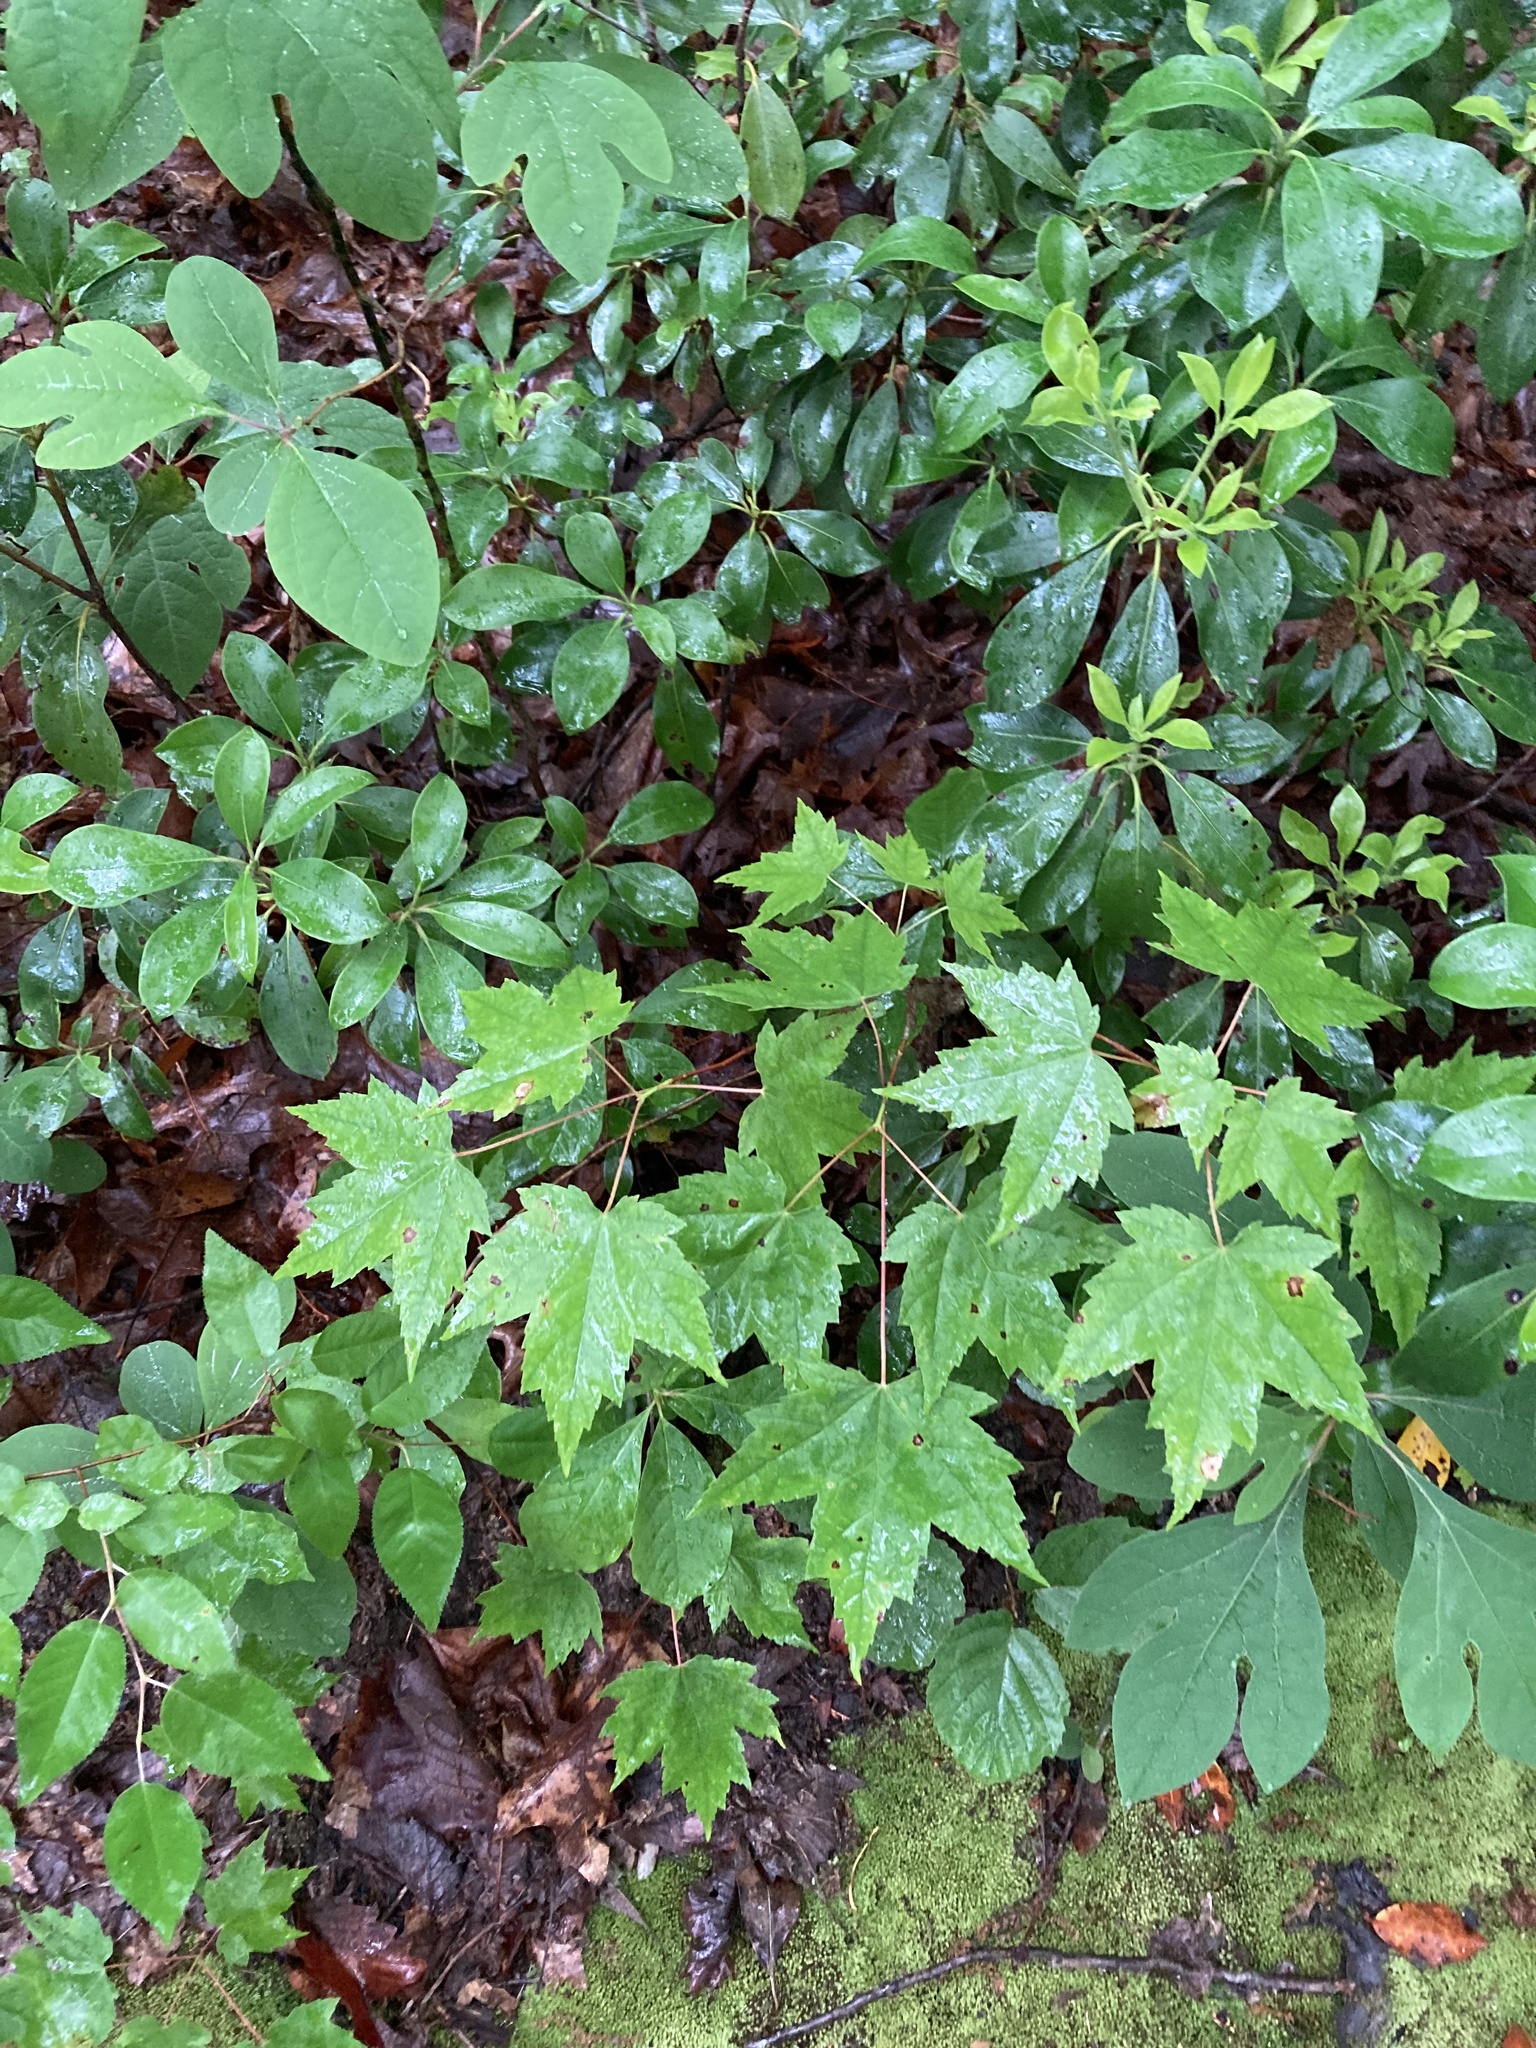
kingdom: Plantae
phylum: Tracheophyta
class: Magnoliopsida
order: Sapindales
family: Sapindaceae
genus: Acer
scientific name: Acer rubrum
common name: Red maple
